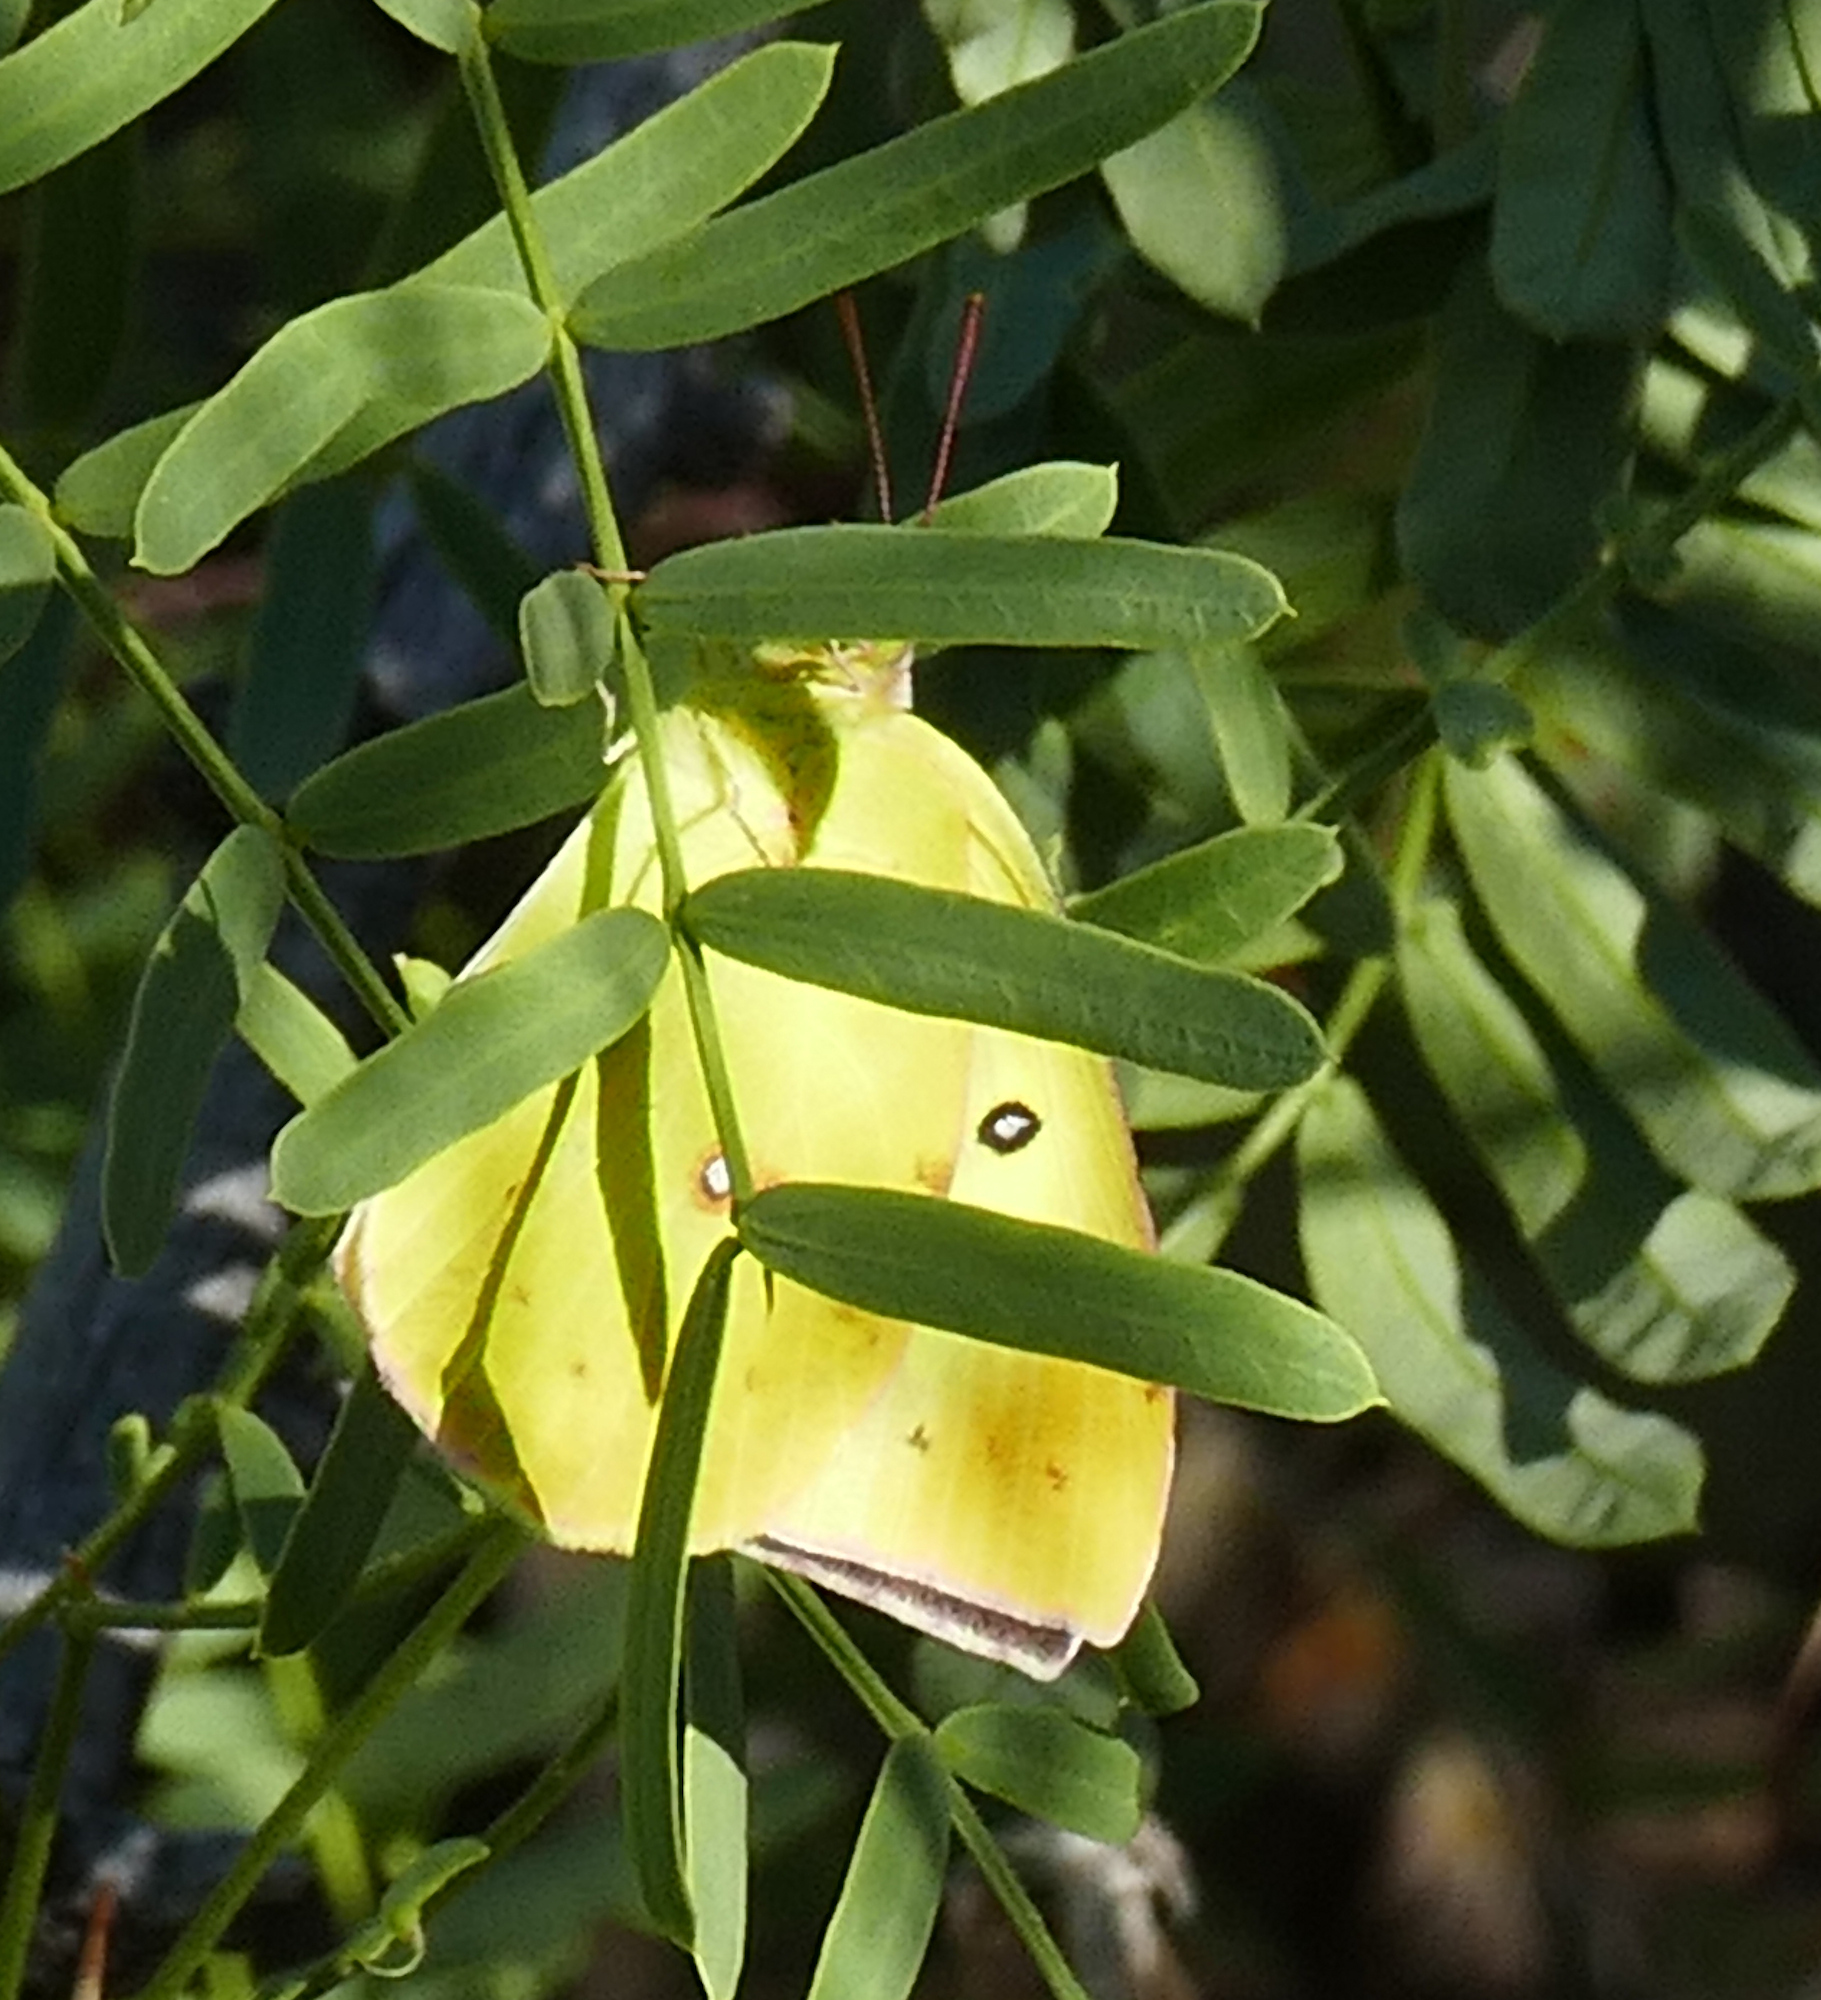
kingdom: Animalia
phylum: Arthropoda
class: Insecta
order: Lepidoptera
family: Pieridae
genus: Zerene
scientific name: Zerene cesonia
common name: Southern dogface
